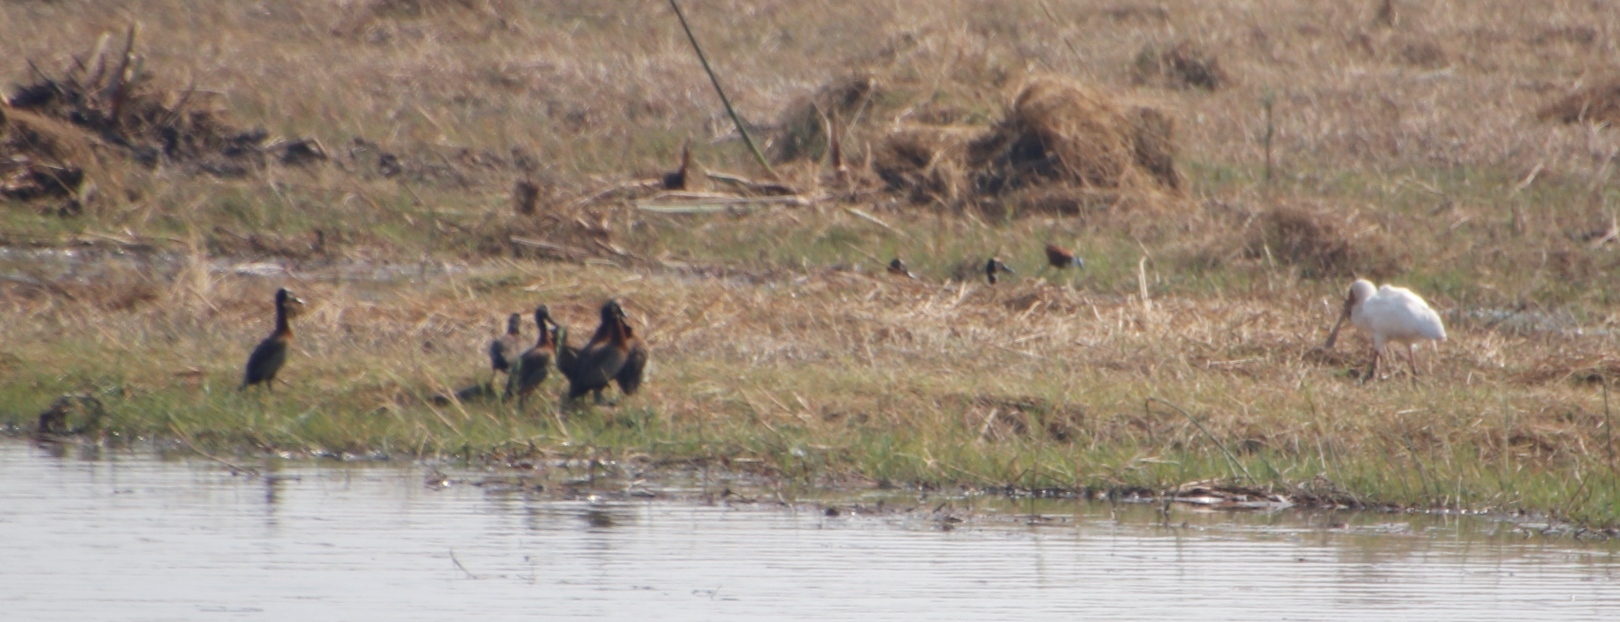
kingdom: Animalia
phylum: Chordata
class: Aves
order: Charadriiformes
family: Jacanidae
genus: Actophilornis
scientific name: Actophilornis africanus
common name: African jacana
